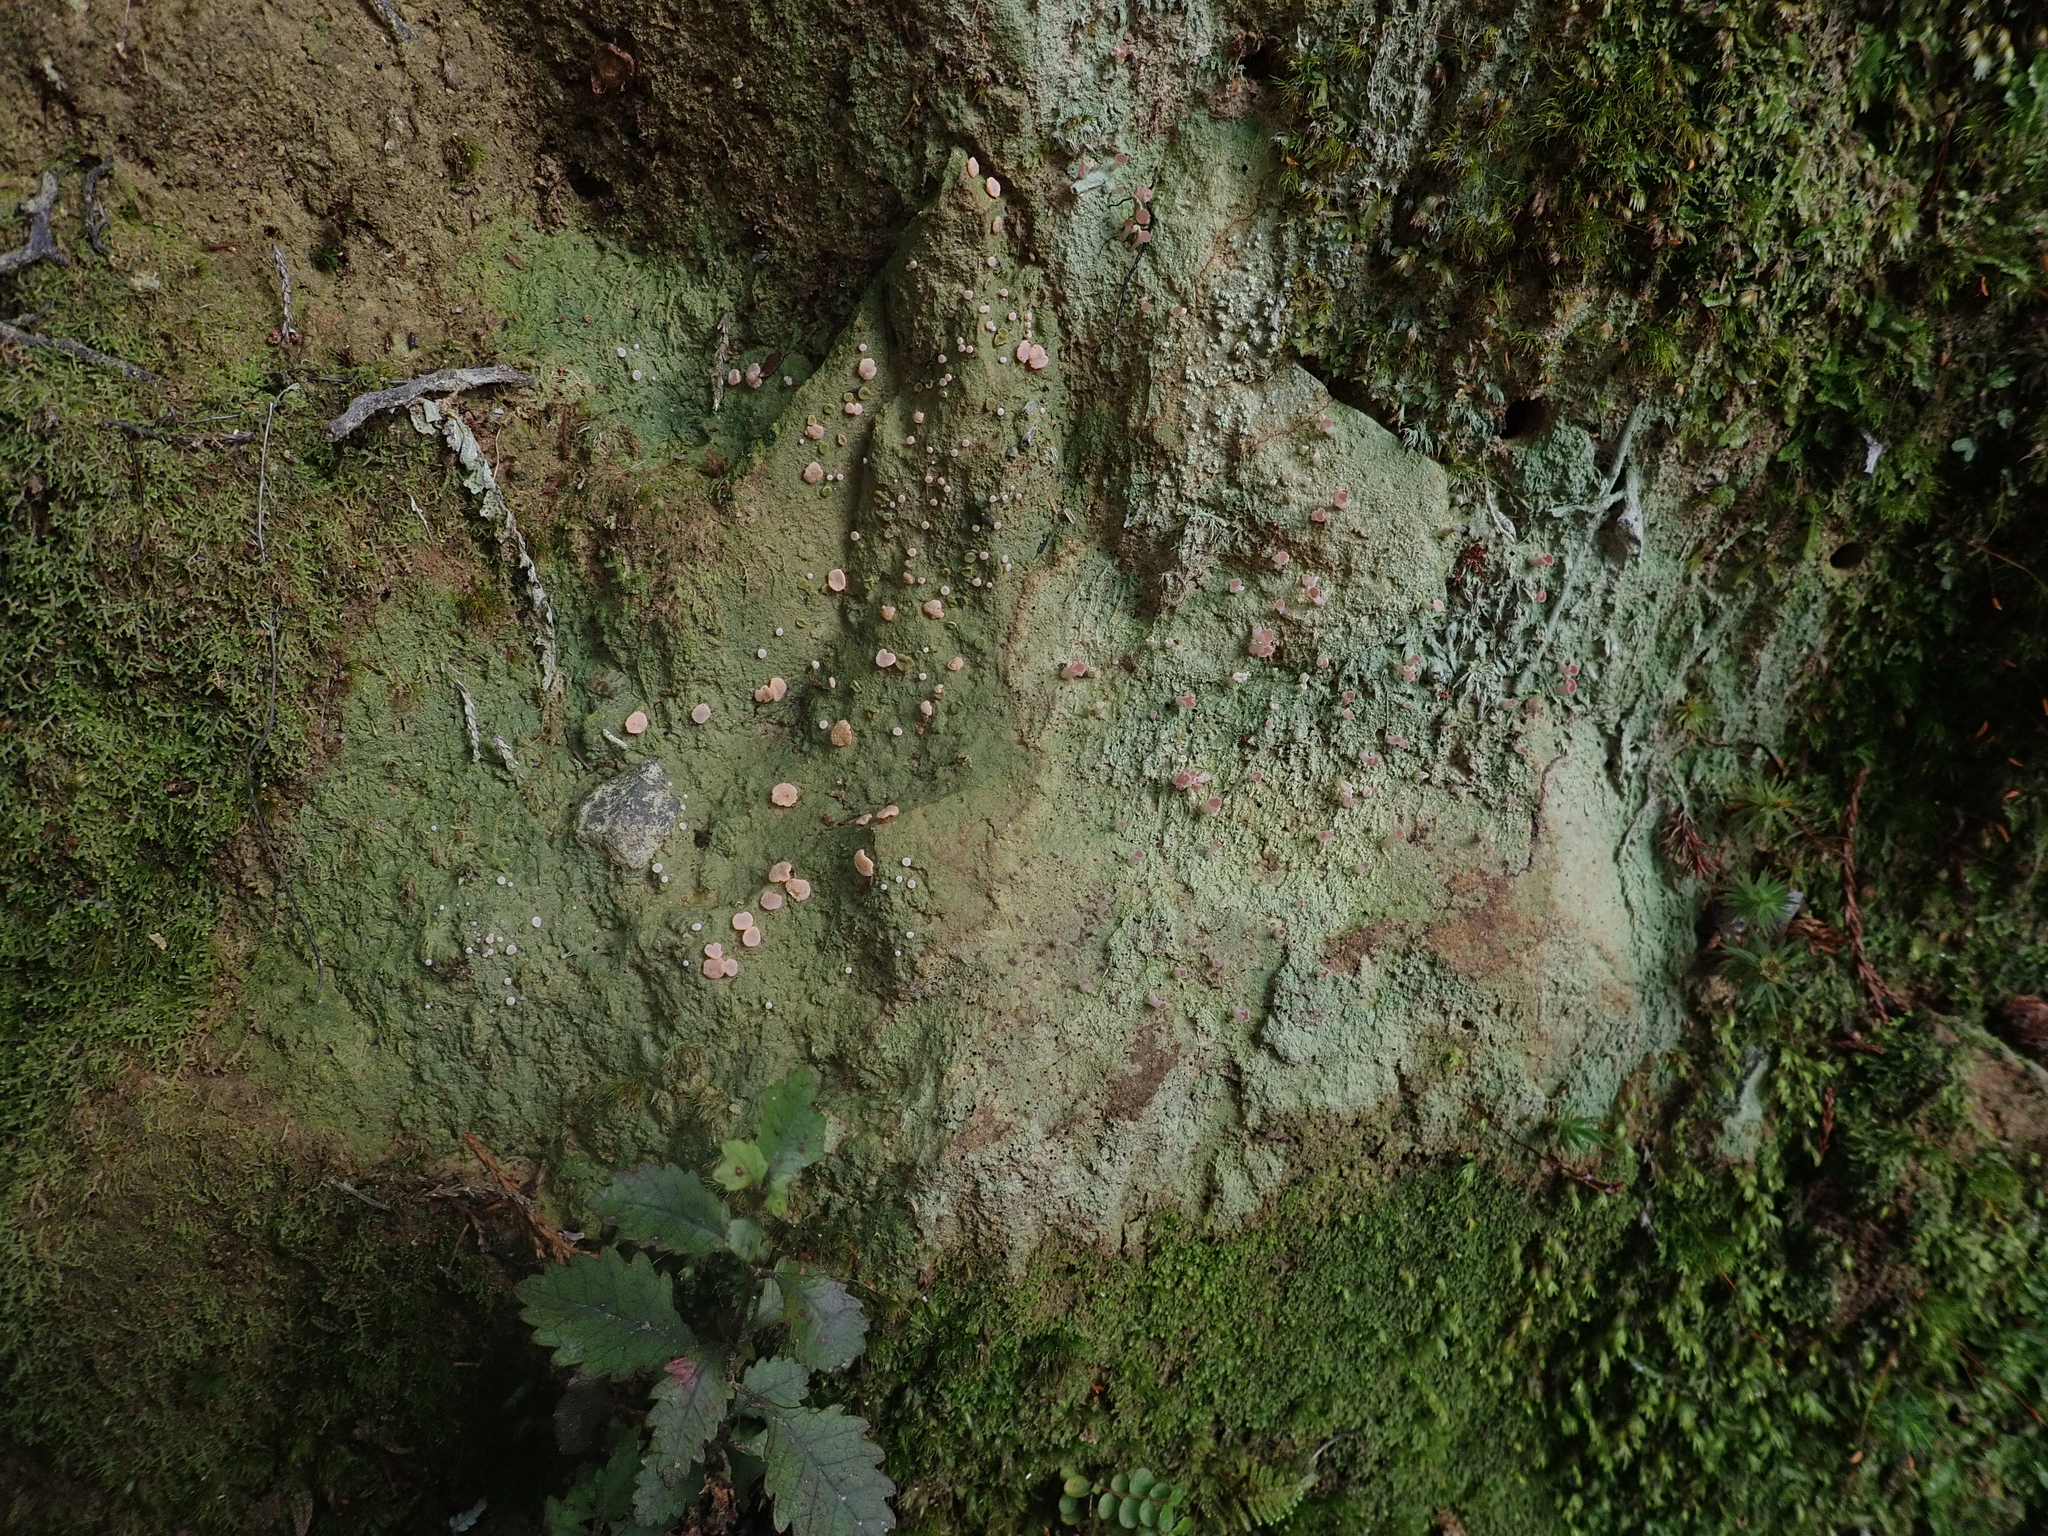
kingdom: Fungi
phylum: Ascomycota
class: Lecanoromycetes
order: Pertusariales
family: Icmadophilaceae
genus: Dibaeis
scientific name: Dibaeis absoluta
